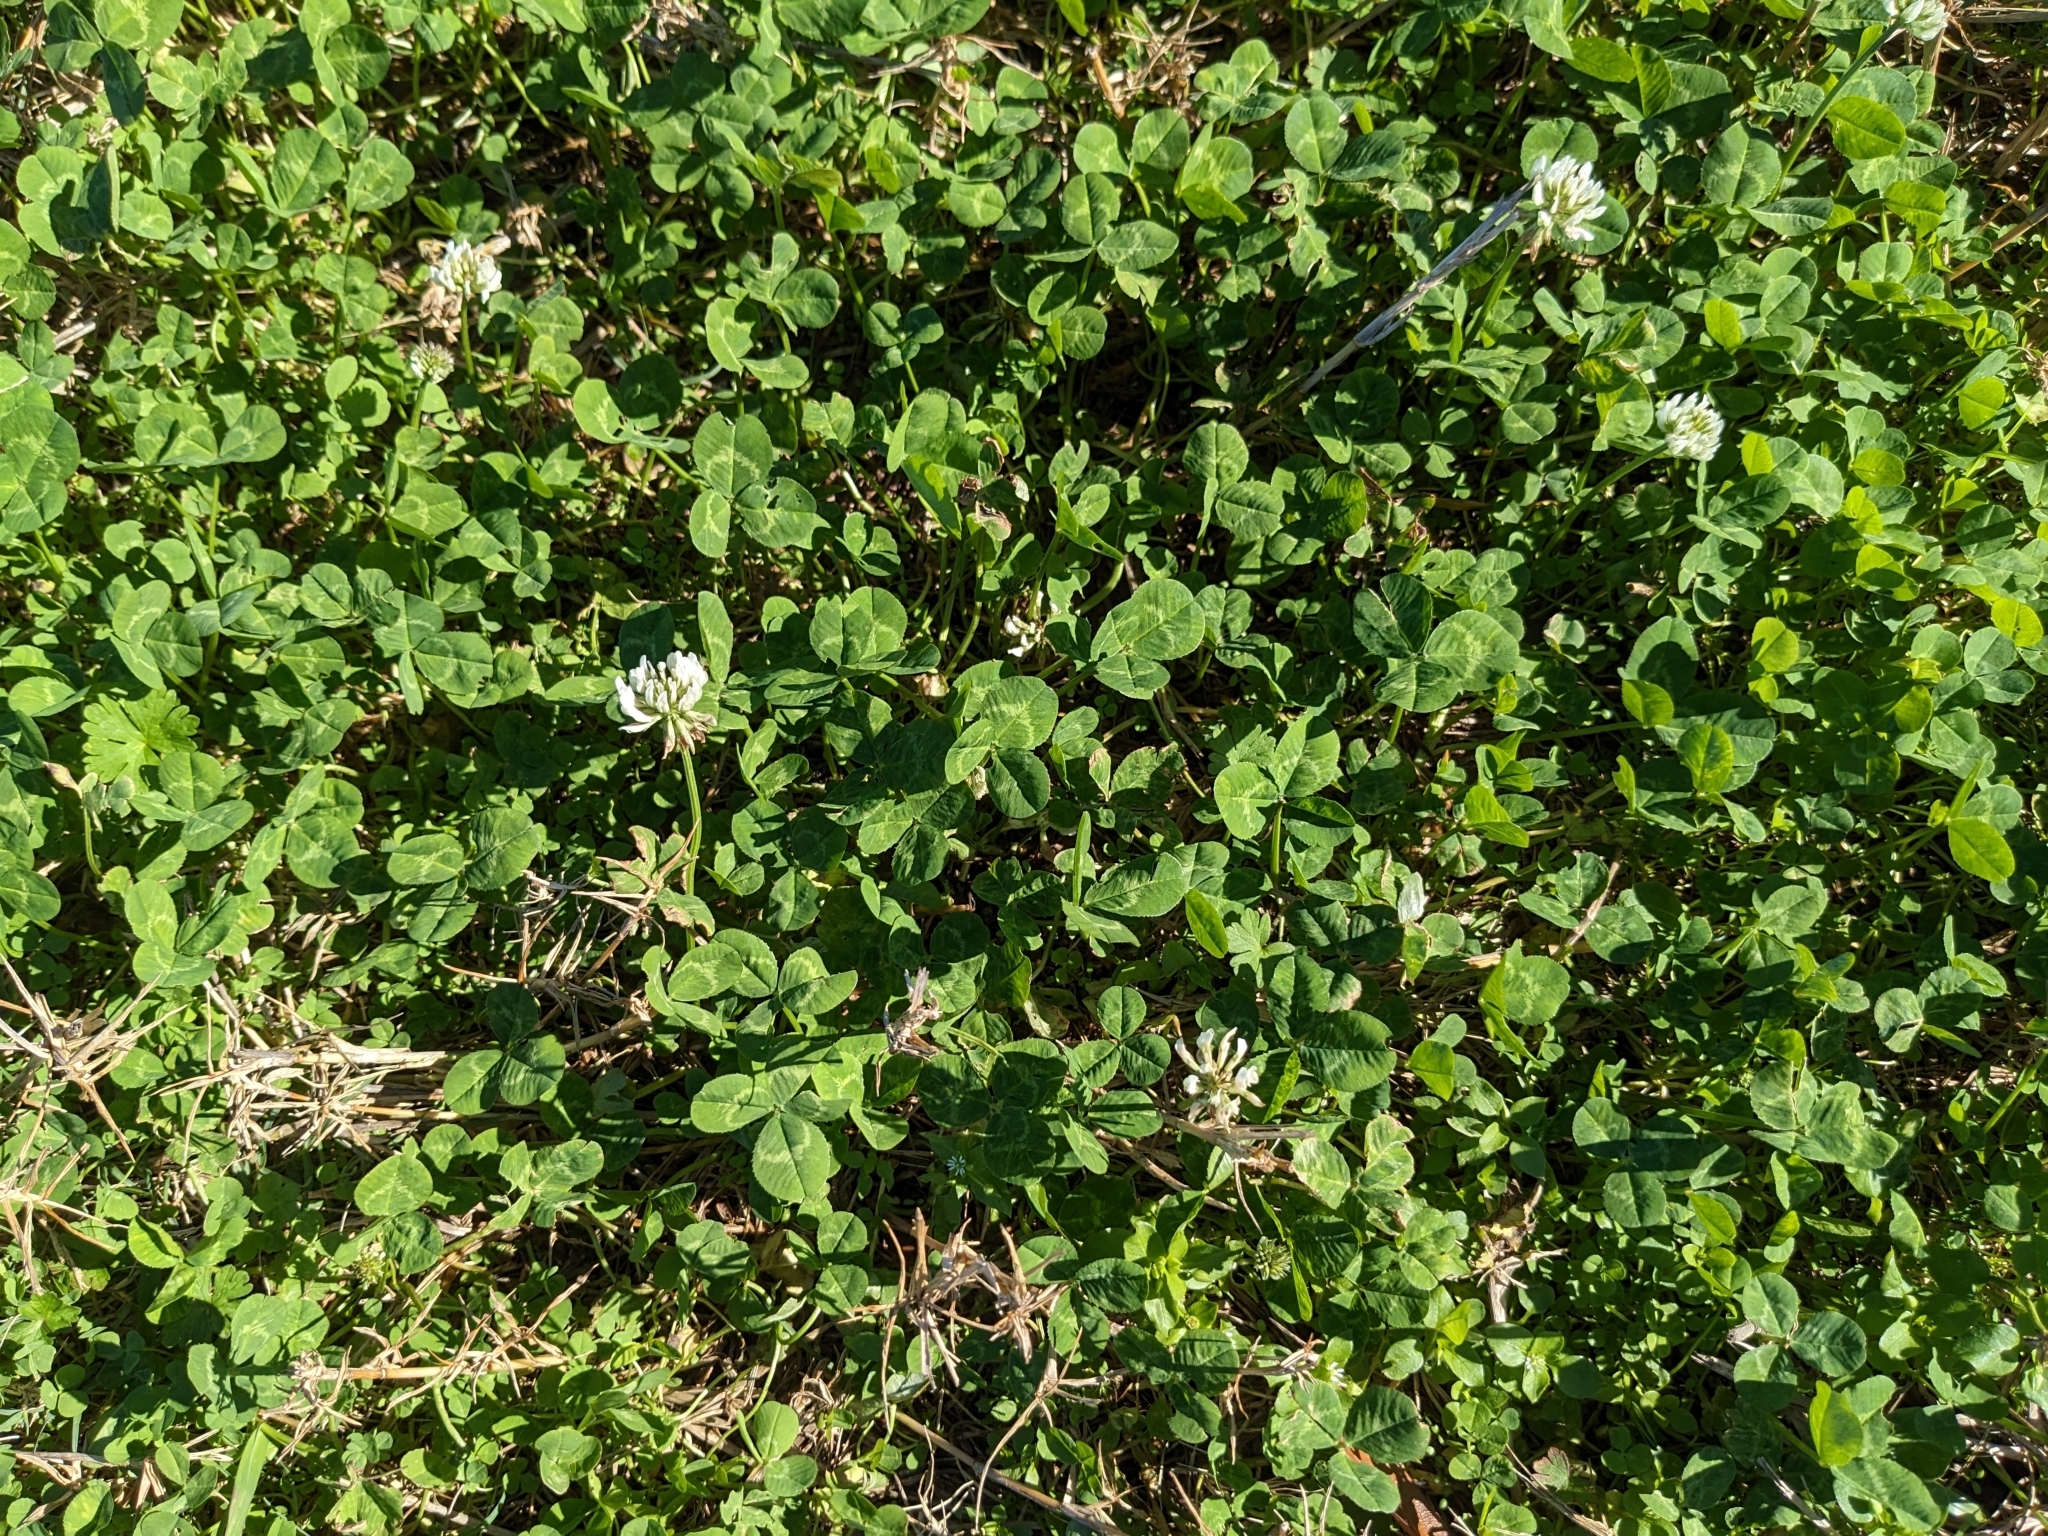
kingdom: Plantae
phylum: Tracheophyta
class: Magnoliopsida
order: Fabales
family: Fabaceae
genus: Trifolium
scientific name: Trifolium repens
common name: White clover
